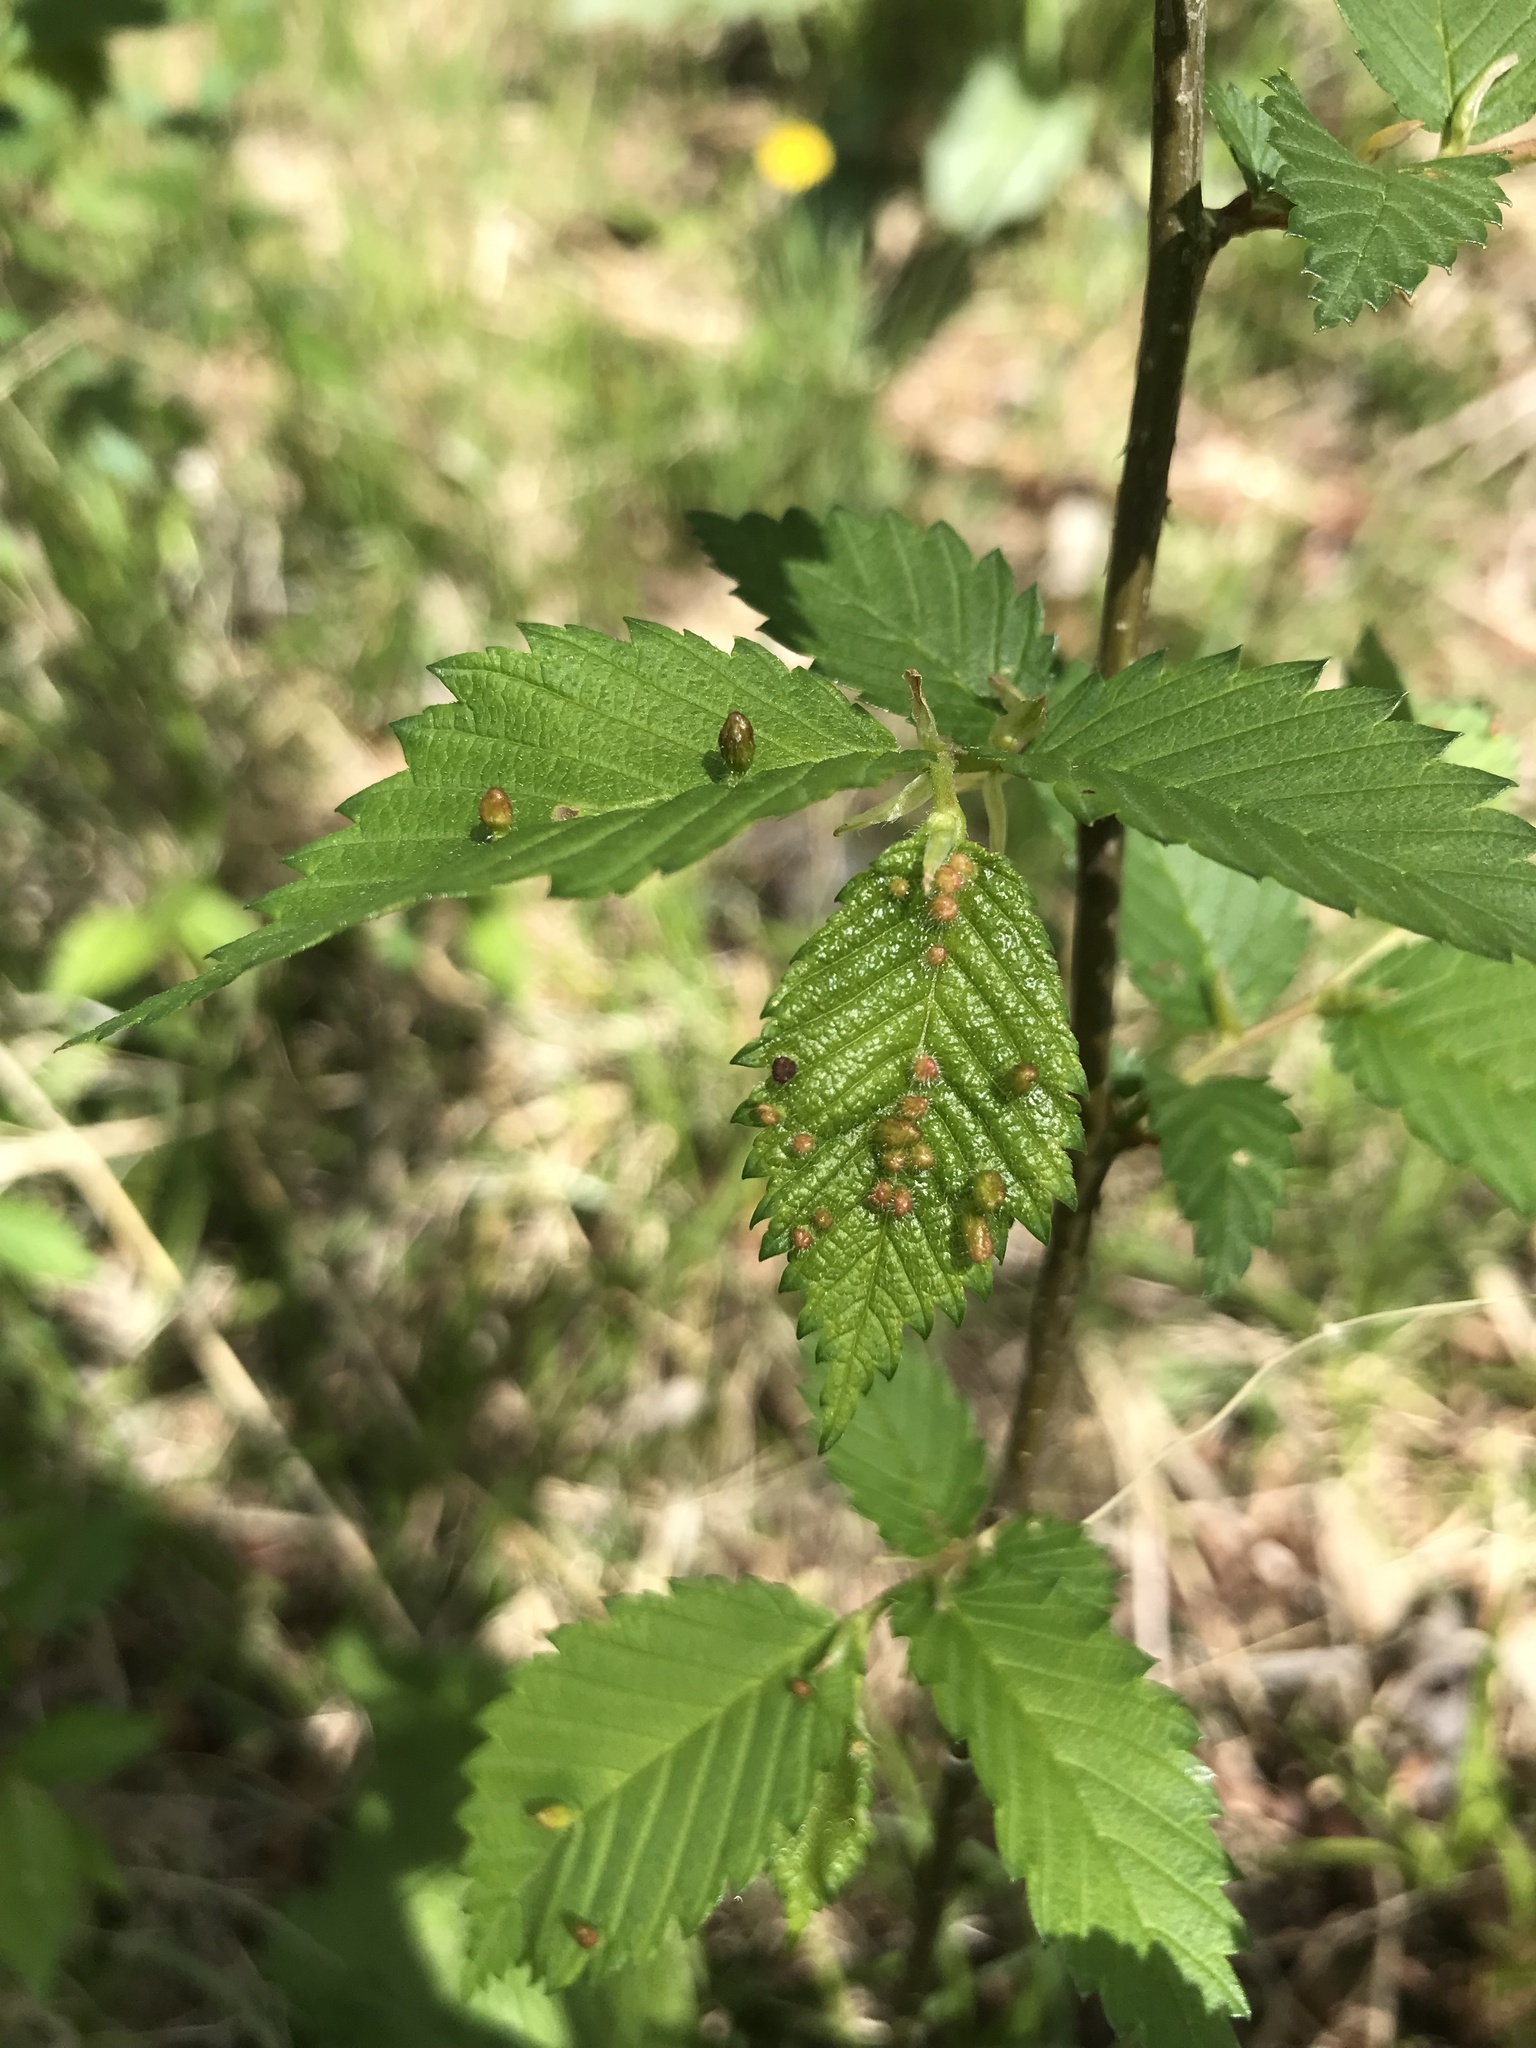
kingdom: Animalia
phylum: Arthropoda
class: Arachnida
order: Trombidiformes
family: Eriophyidae
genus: Aceria
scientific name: Aceria
